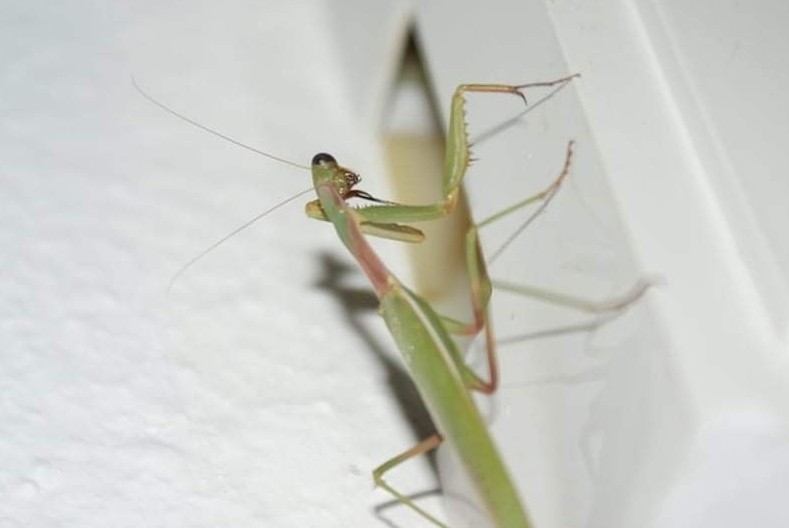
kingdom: Animalia
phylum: Arthropoda
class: Insecta
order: Mantodea
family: Eremiaphilidae
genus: Iris
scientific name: Iris oratoria
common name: Mediterranean mantis
